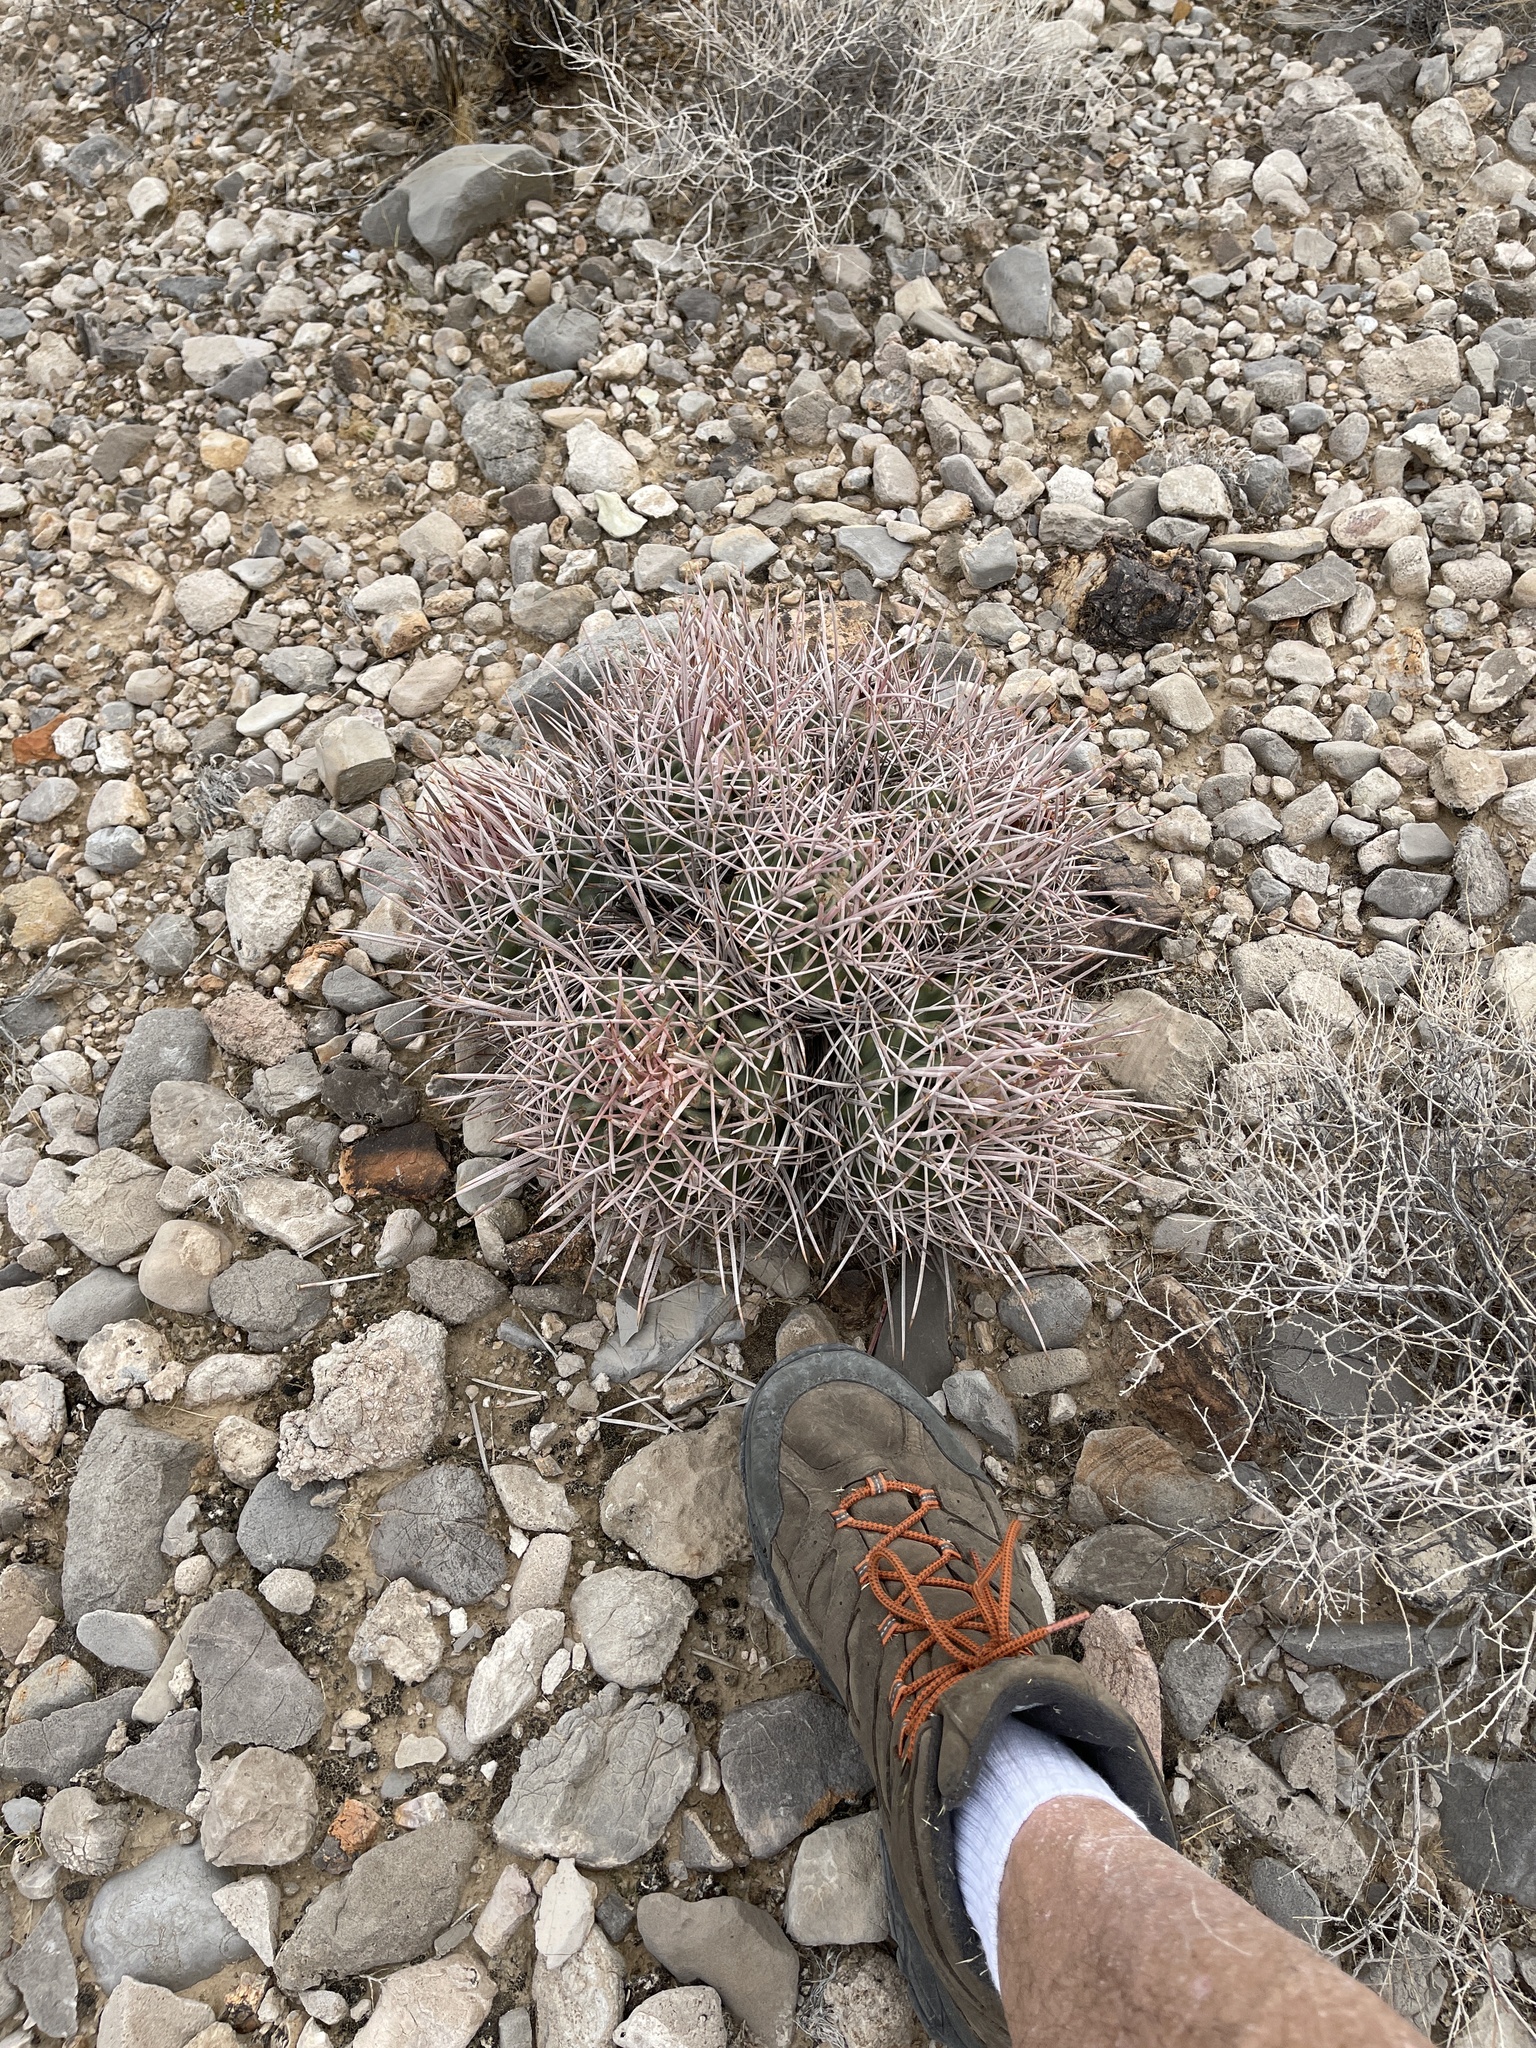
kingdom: Plantae
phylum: Tracheophyta
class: Magnoliopsida
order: Caryophyllales
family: Cactaceae
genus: Echinocactus
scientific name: Echinocactus polycephalus
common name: Cottontop cactus
